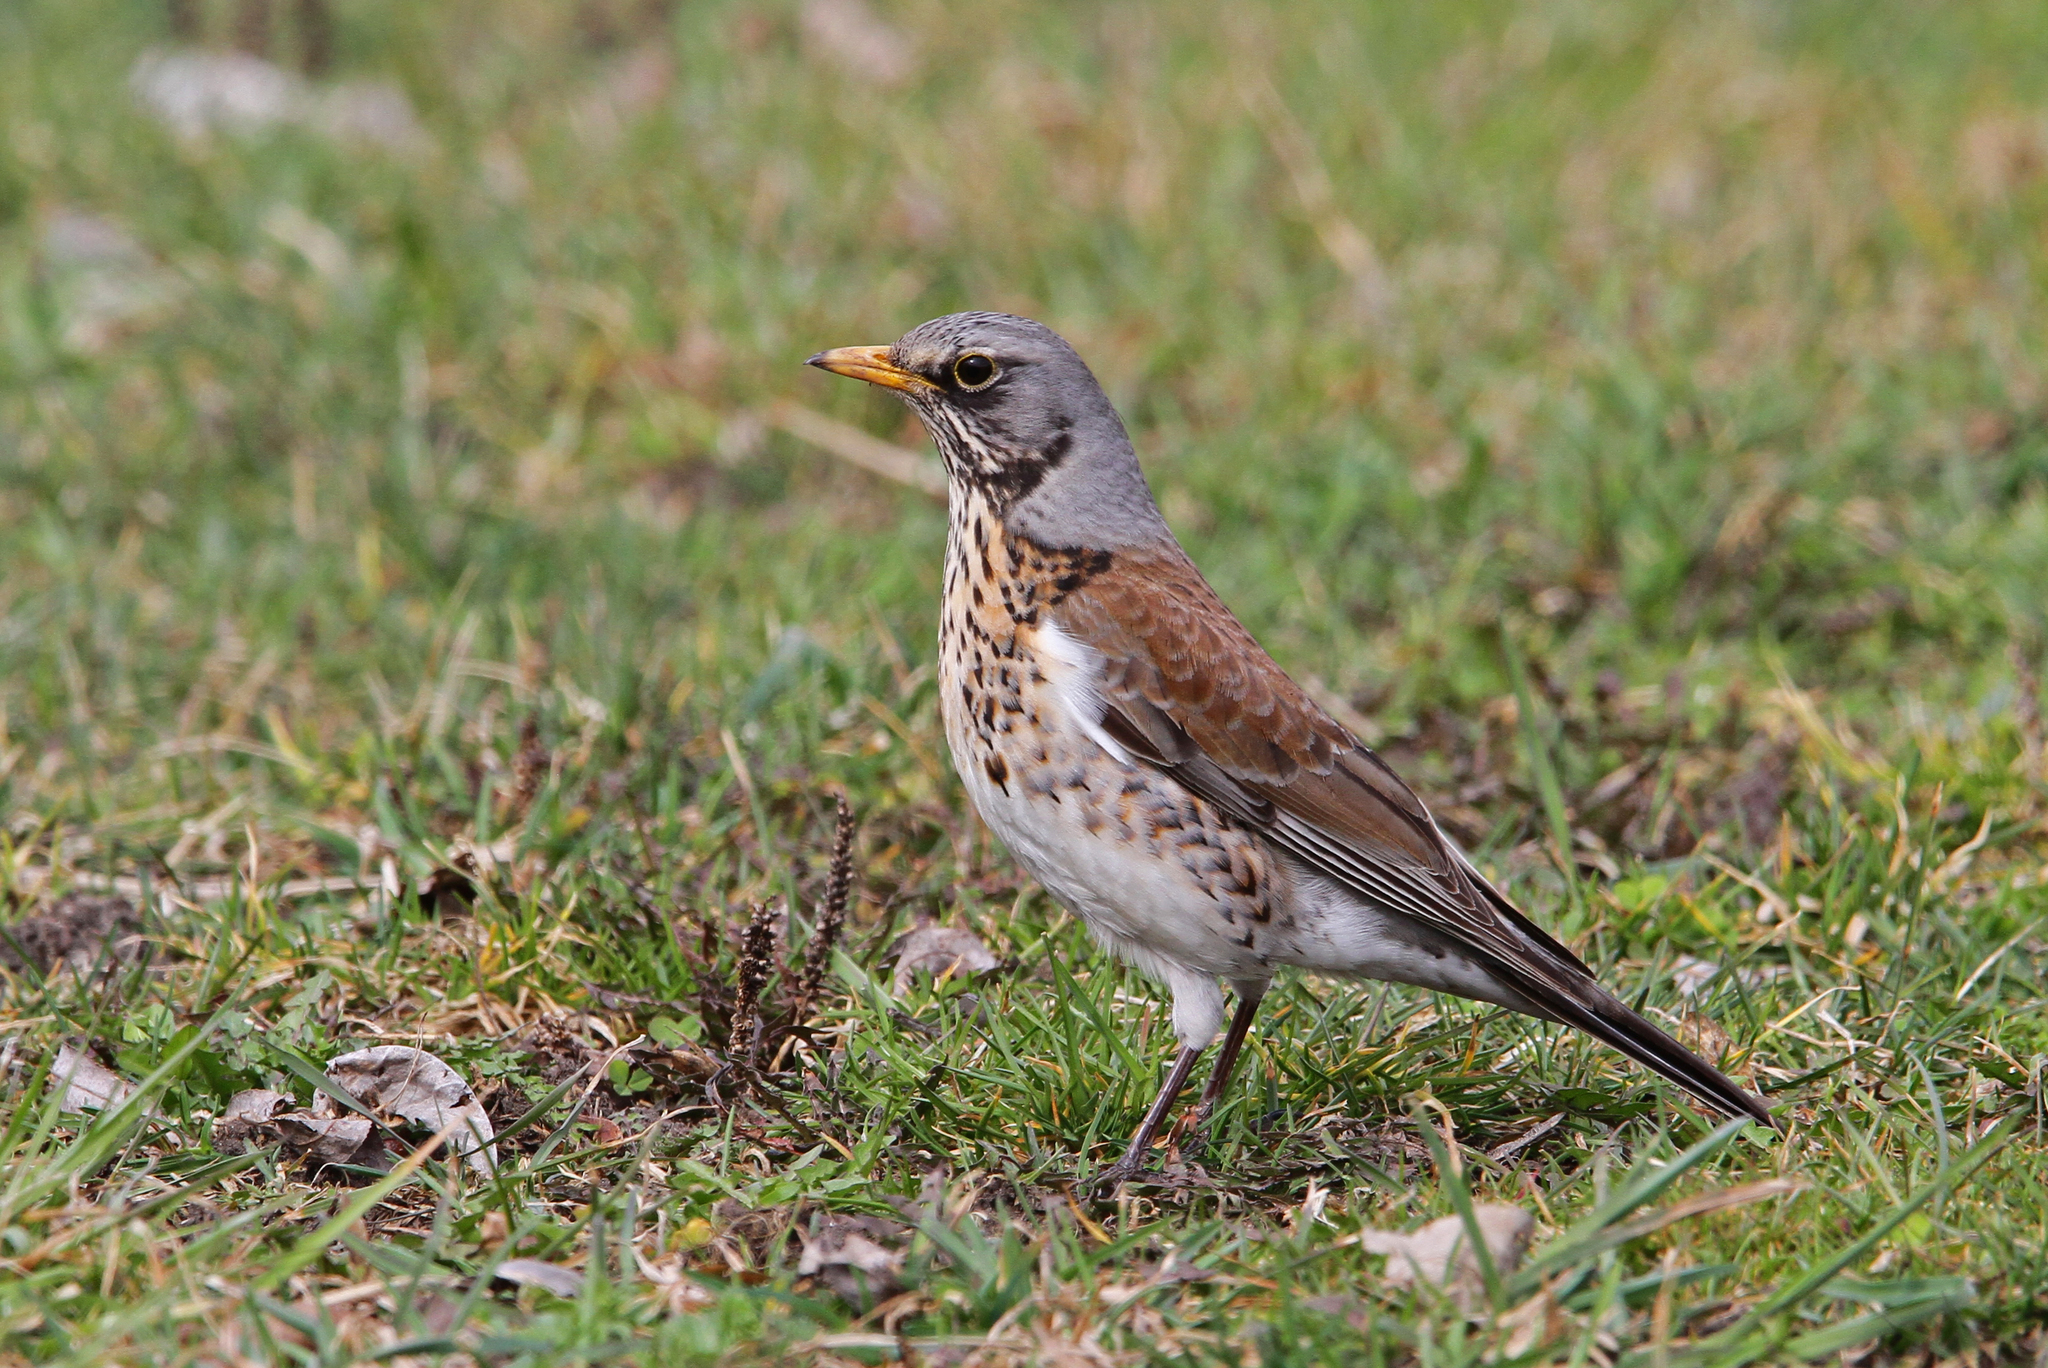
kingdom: Animalia
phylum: Chordata
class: Aves
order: Passeriformes
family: Turdidae
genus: Turdus
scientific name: Turdus pilaris
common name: Fieldfare
